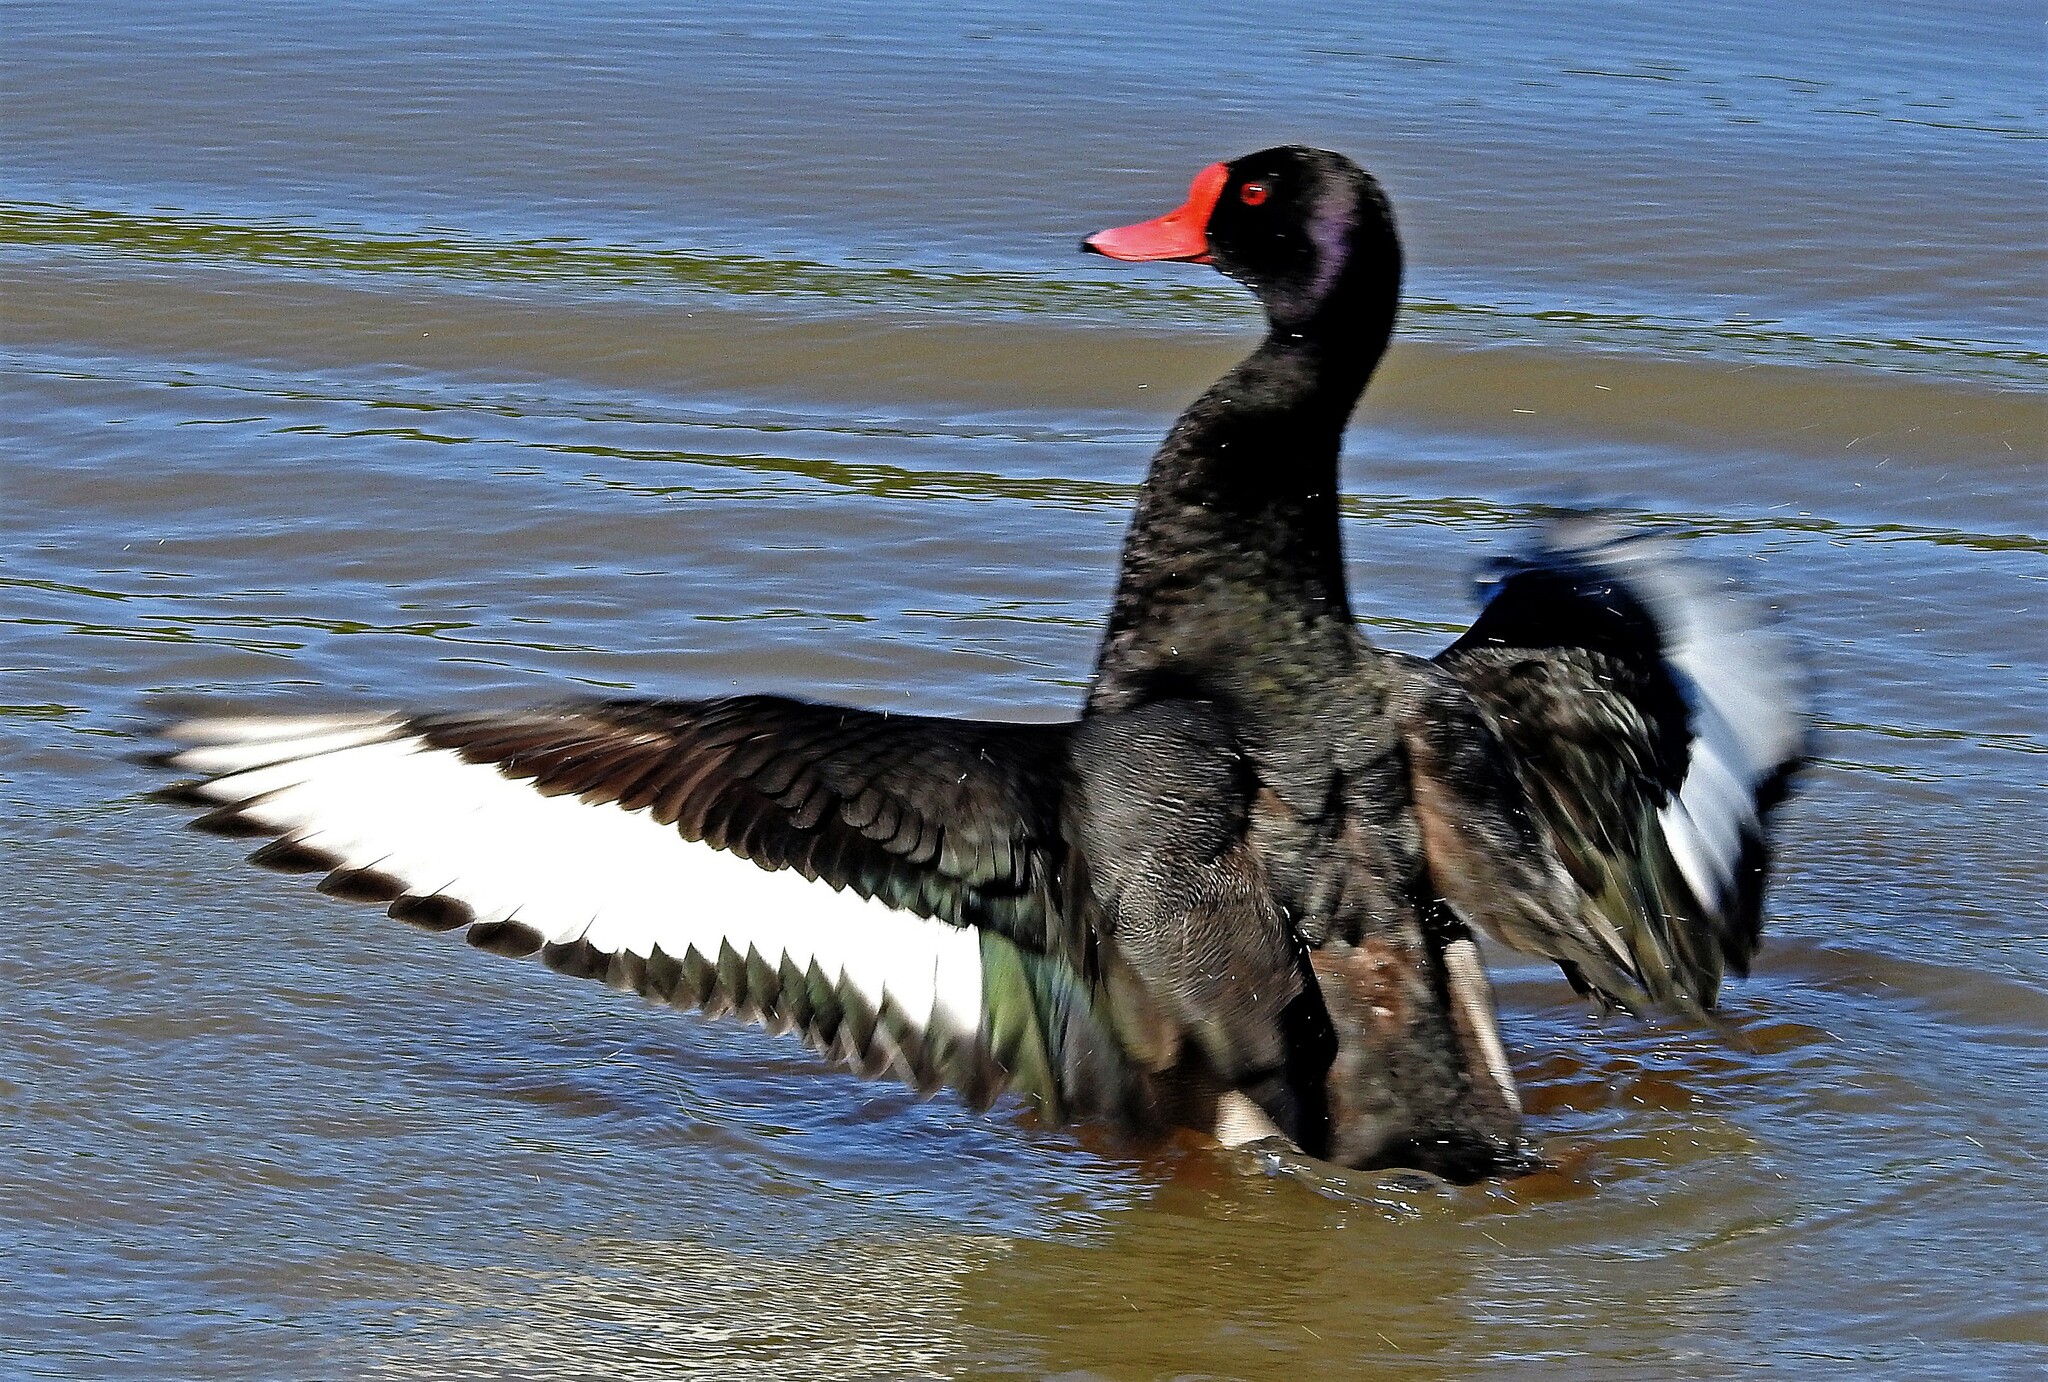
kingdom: Animalia
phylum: Chordata
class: Aves
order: Anseriformes
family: Anatidae
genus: Netta
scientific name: Netta peposaca
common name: Rosy-billed pochard
